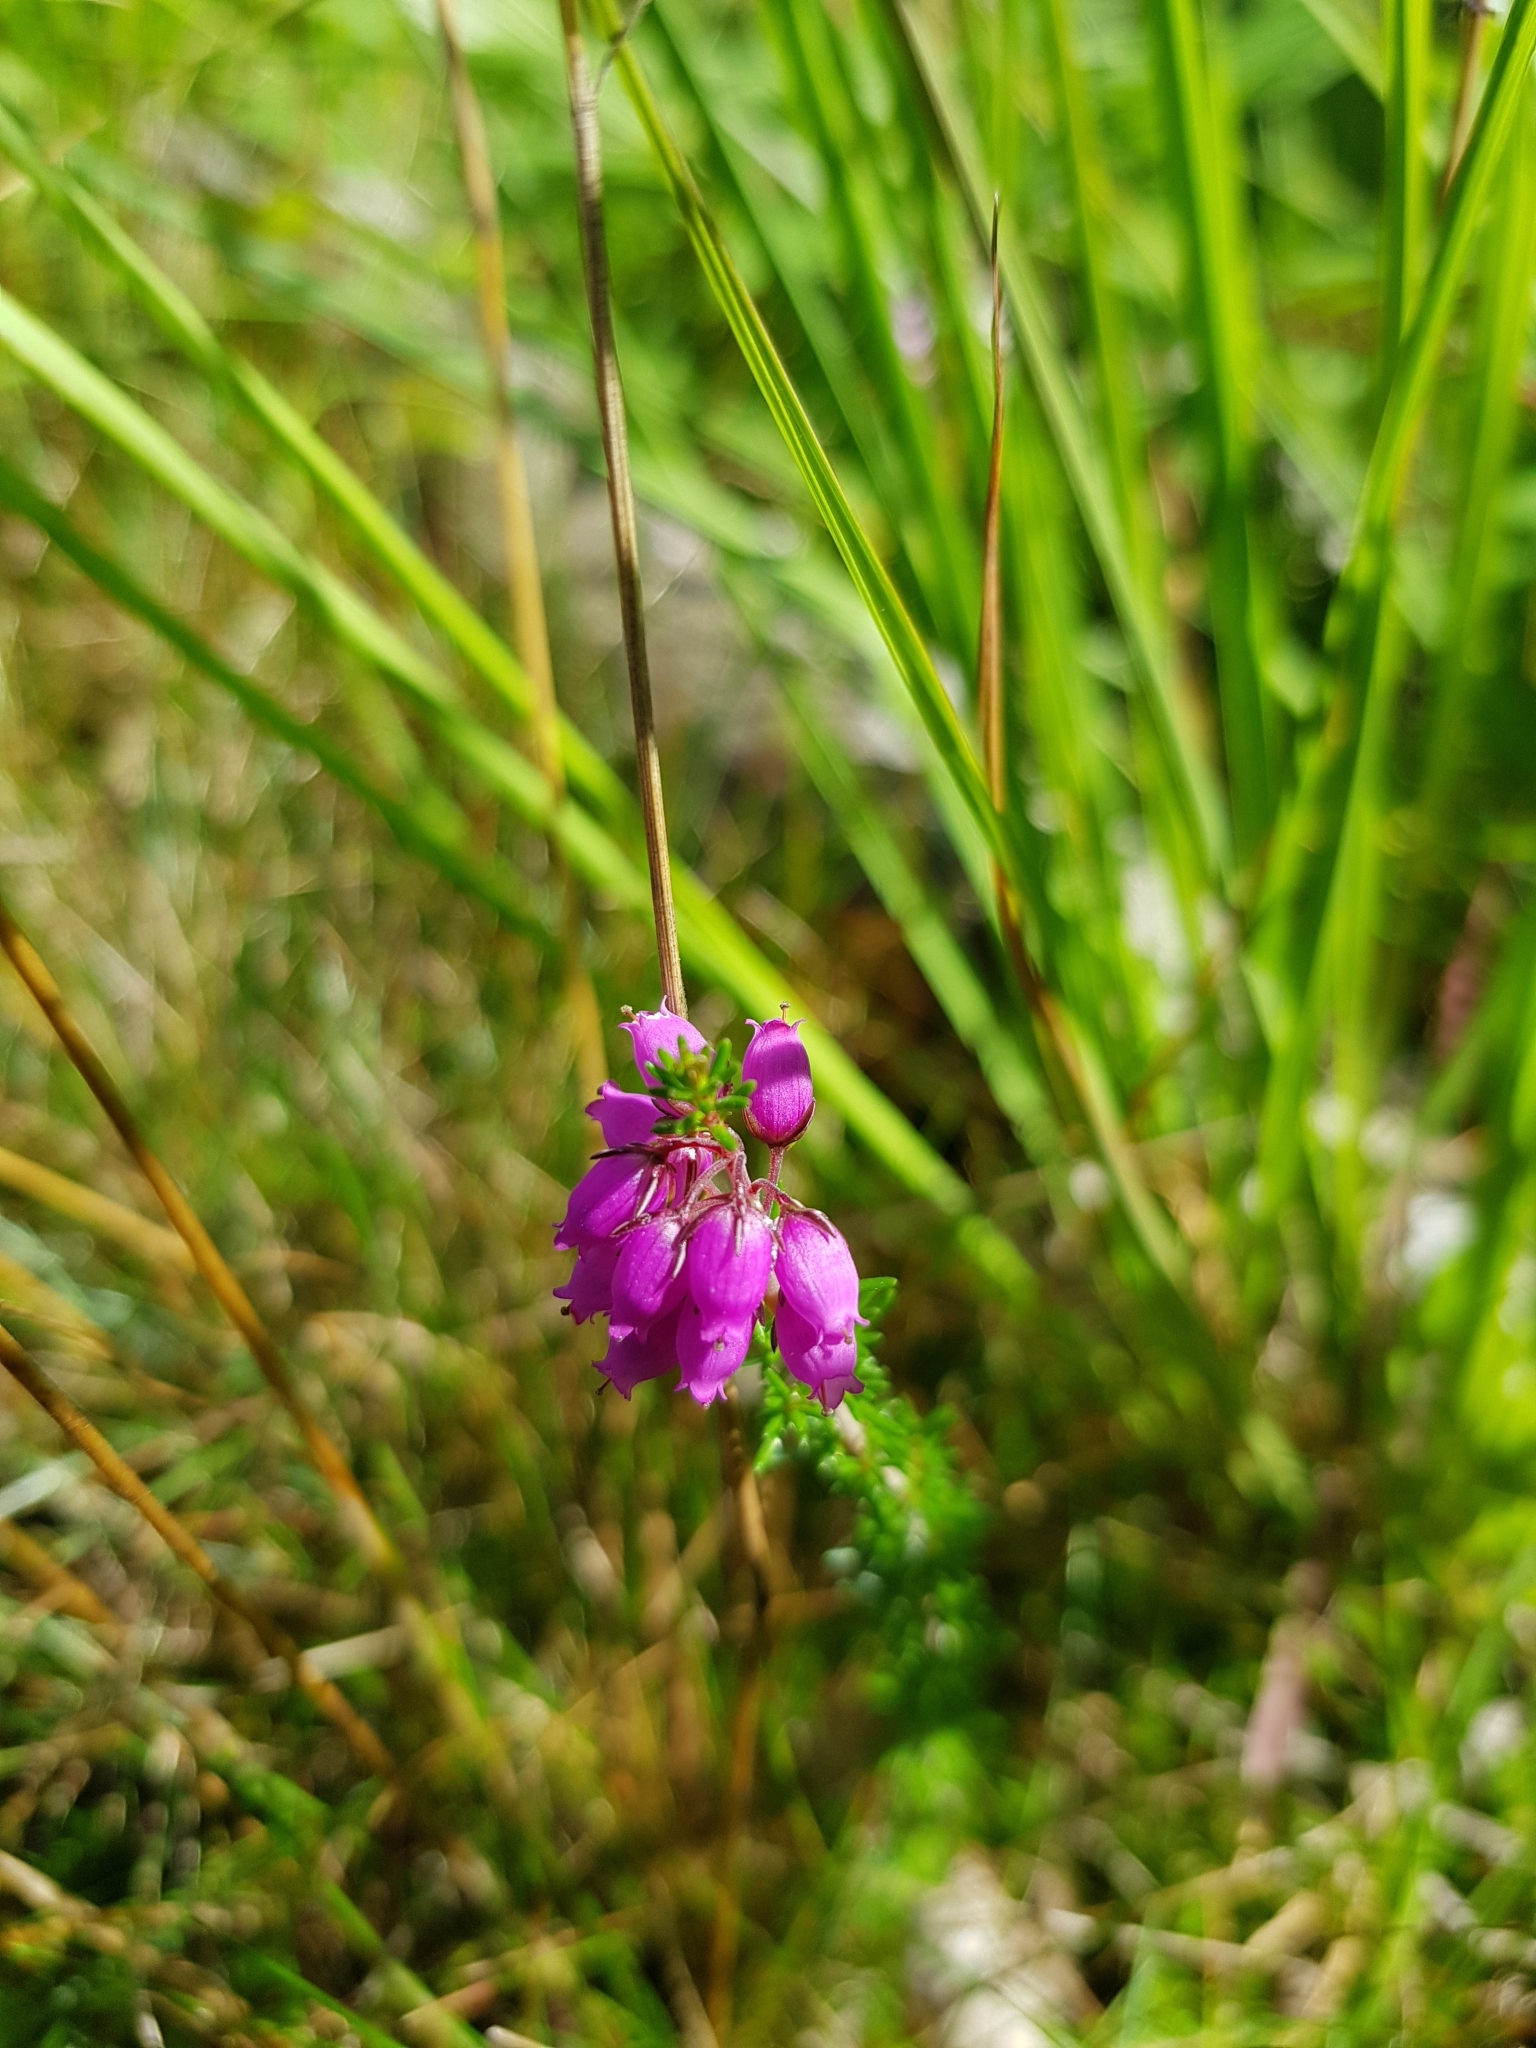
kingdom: Plantae
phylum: Tracheophyta
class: Magnoliopsida
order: Ericales
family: Ericaceae
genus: Erica
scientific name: Erica cinerea
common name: Bell heather
